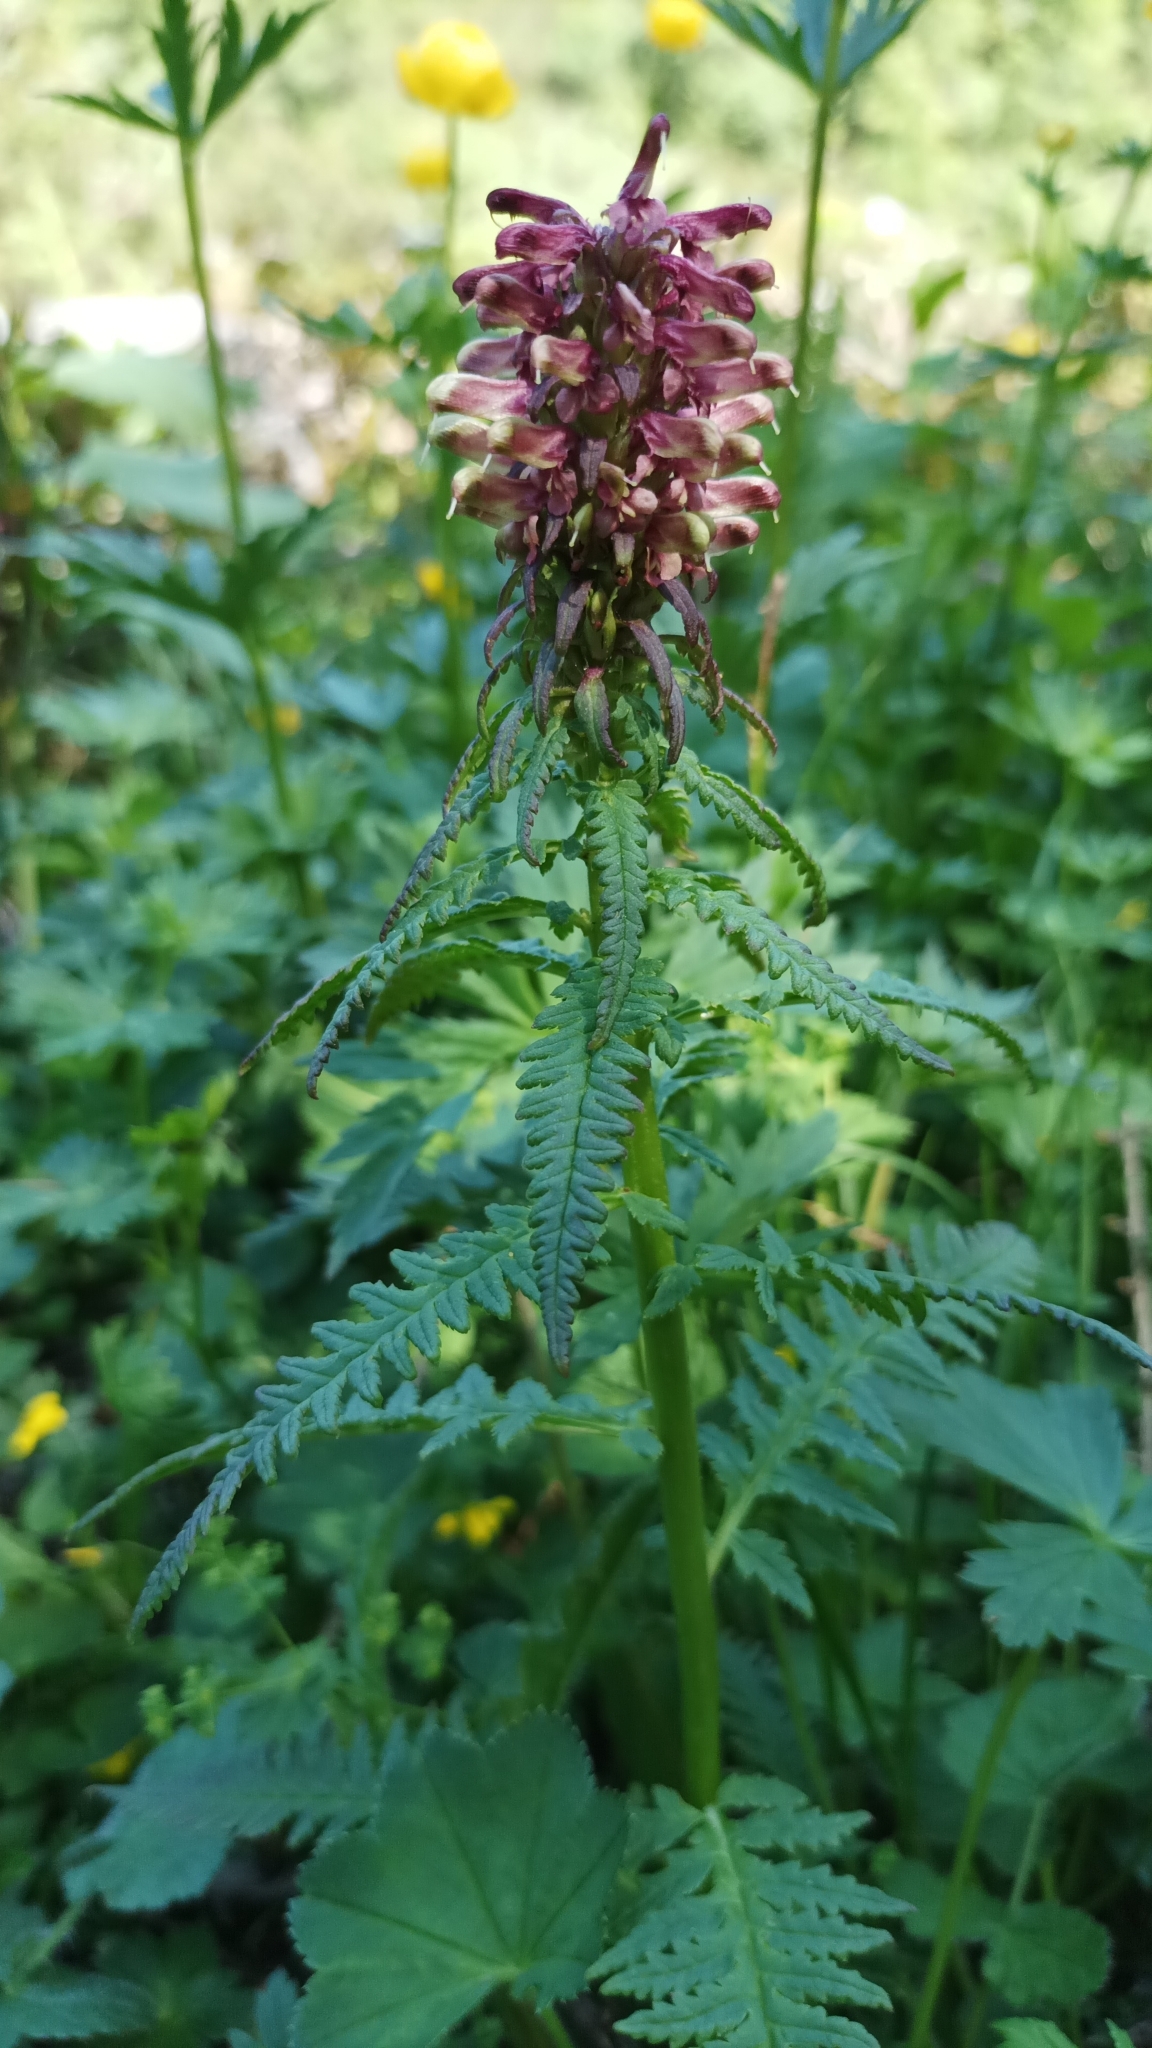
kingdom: Plantae
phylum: Tracheophyta
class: Magnoliopsida
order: Lamiales
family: Orobanchaceae
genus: Pedicularis
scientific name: Pedicularis recutita
